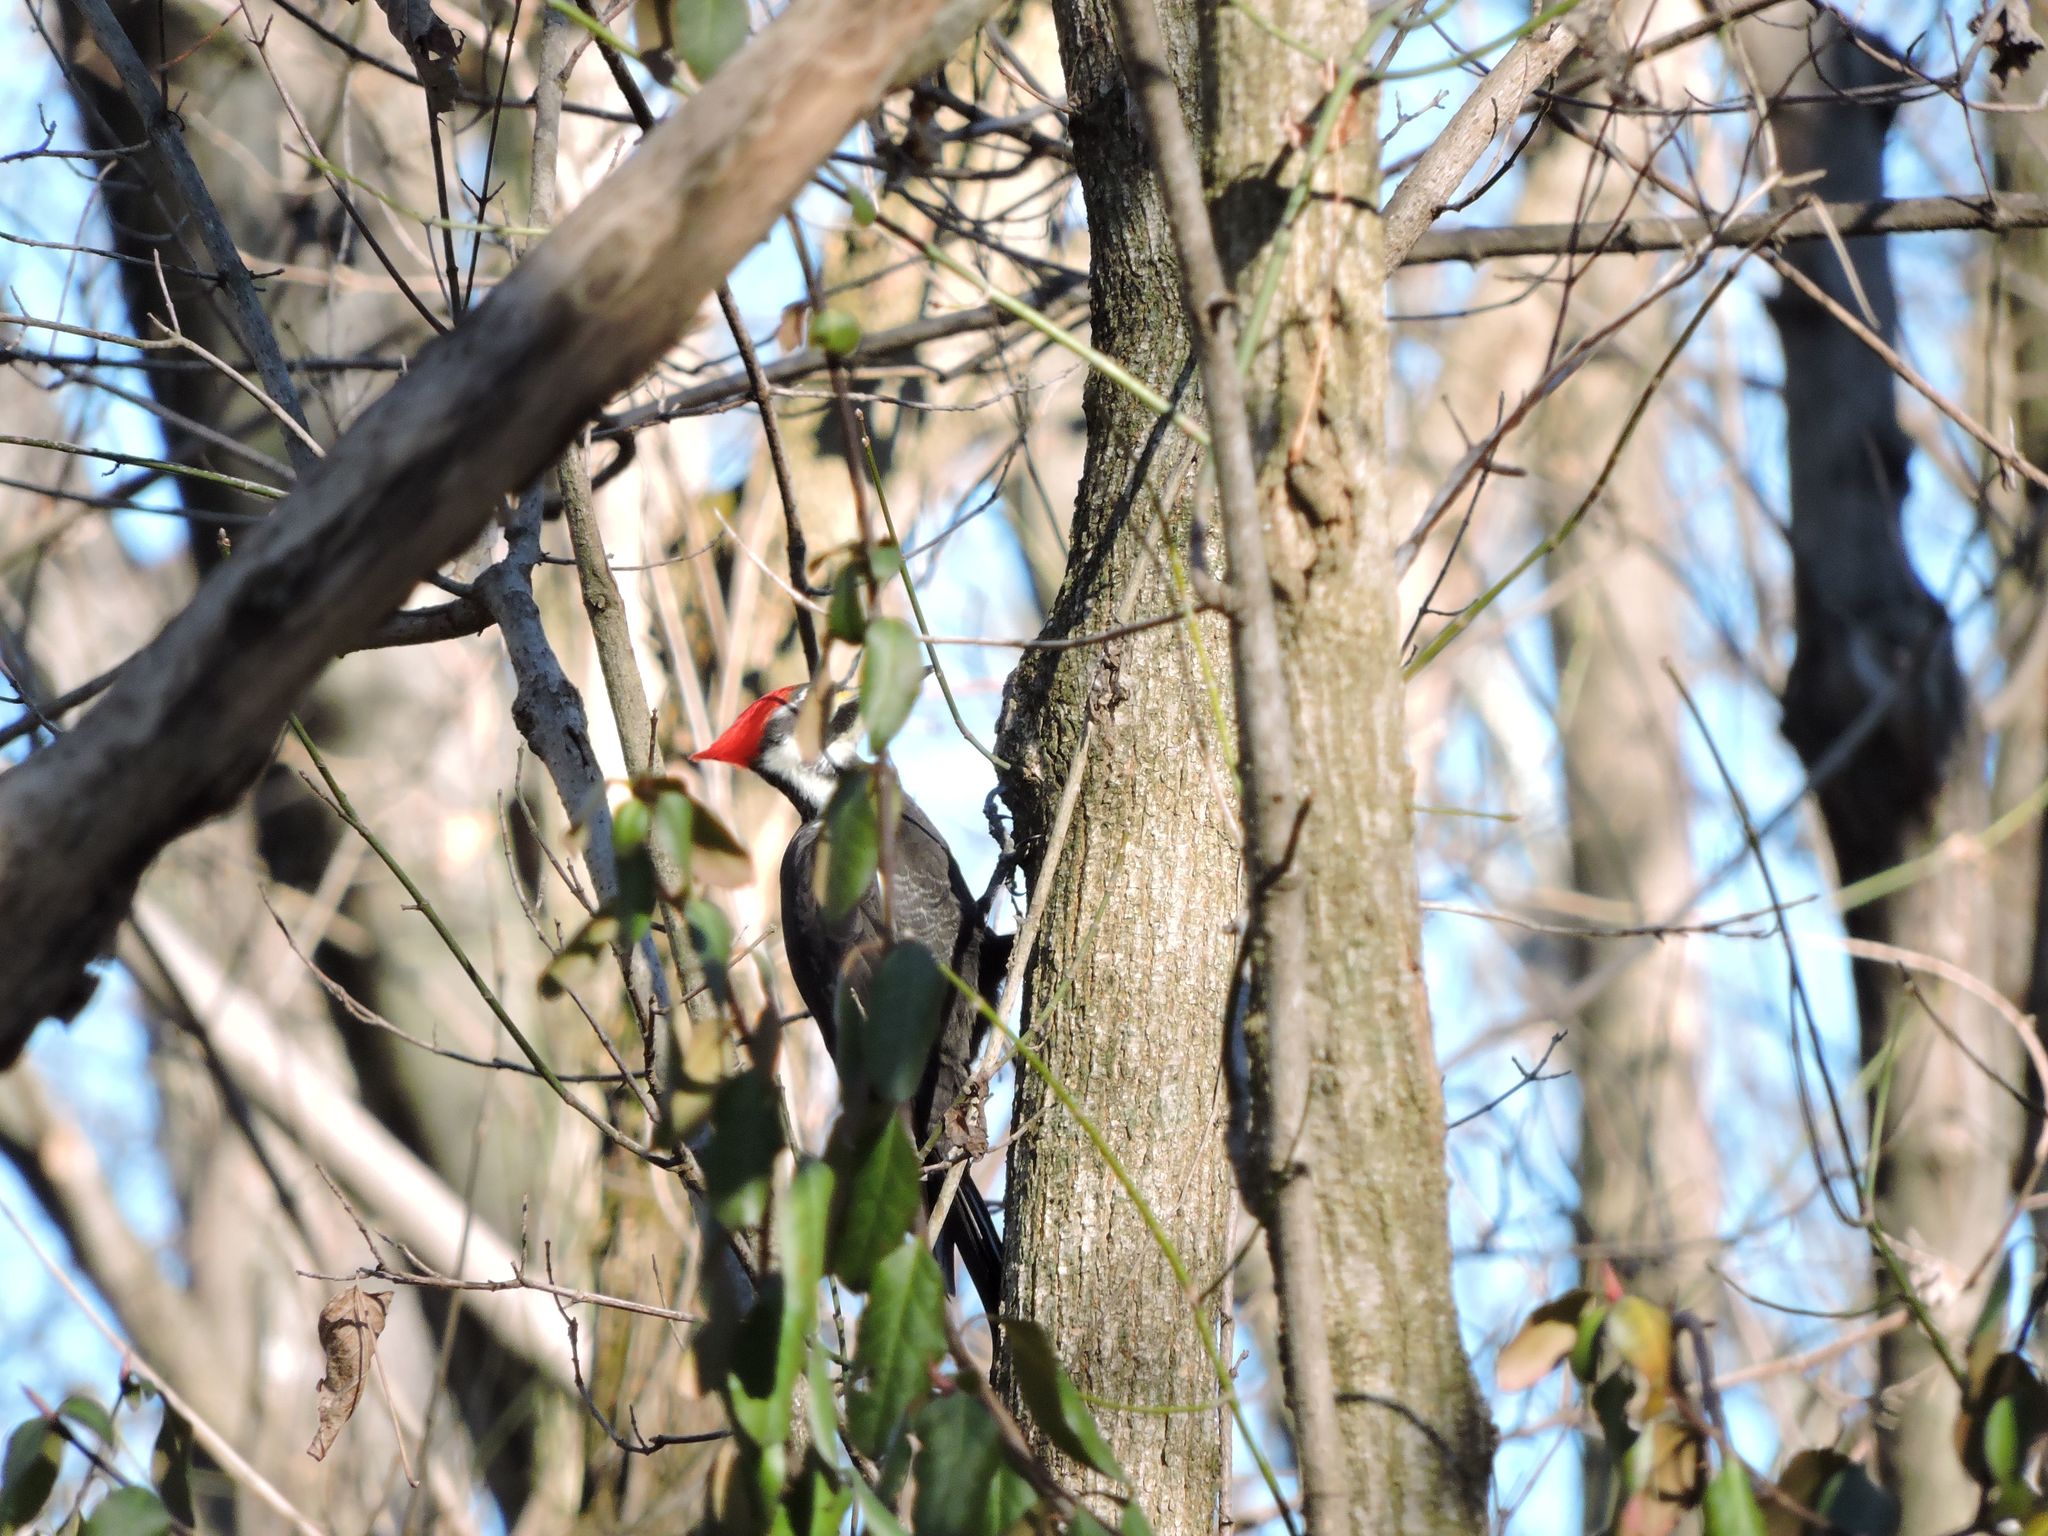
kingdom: Animalia
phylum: Chordata
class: Aves
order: Piciformes
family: Picidae
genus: Dryocopus
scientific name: Dryocopus pileatus
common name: Pileated woodpecker
